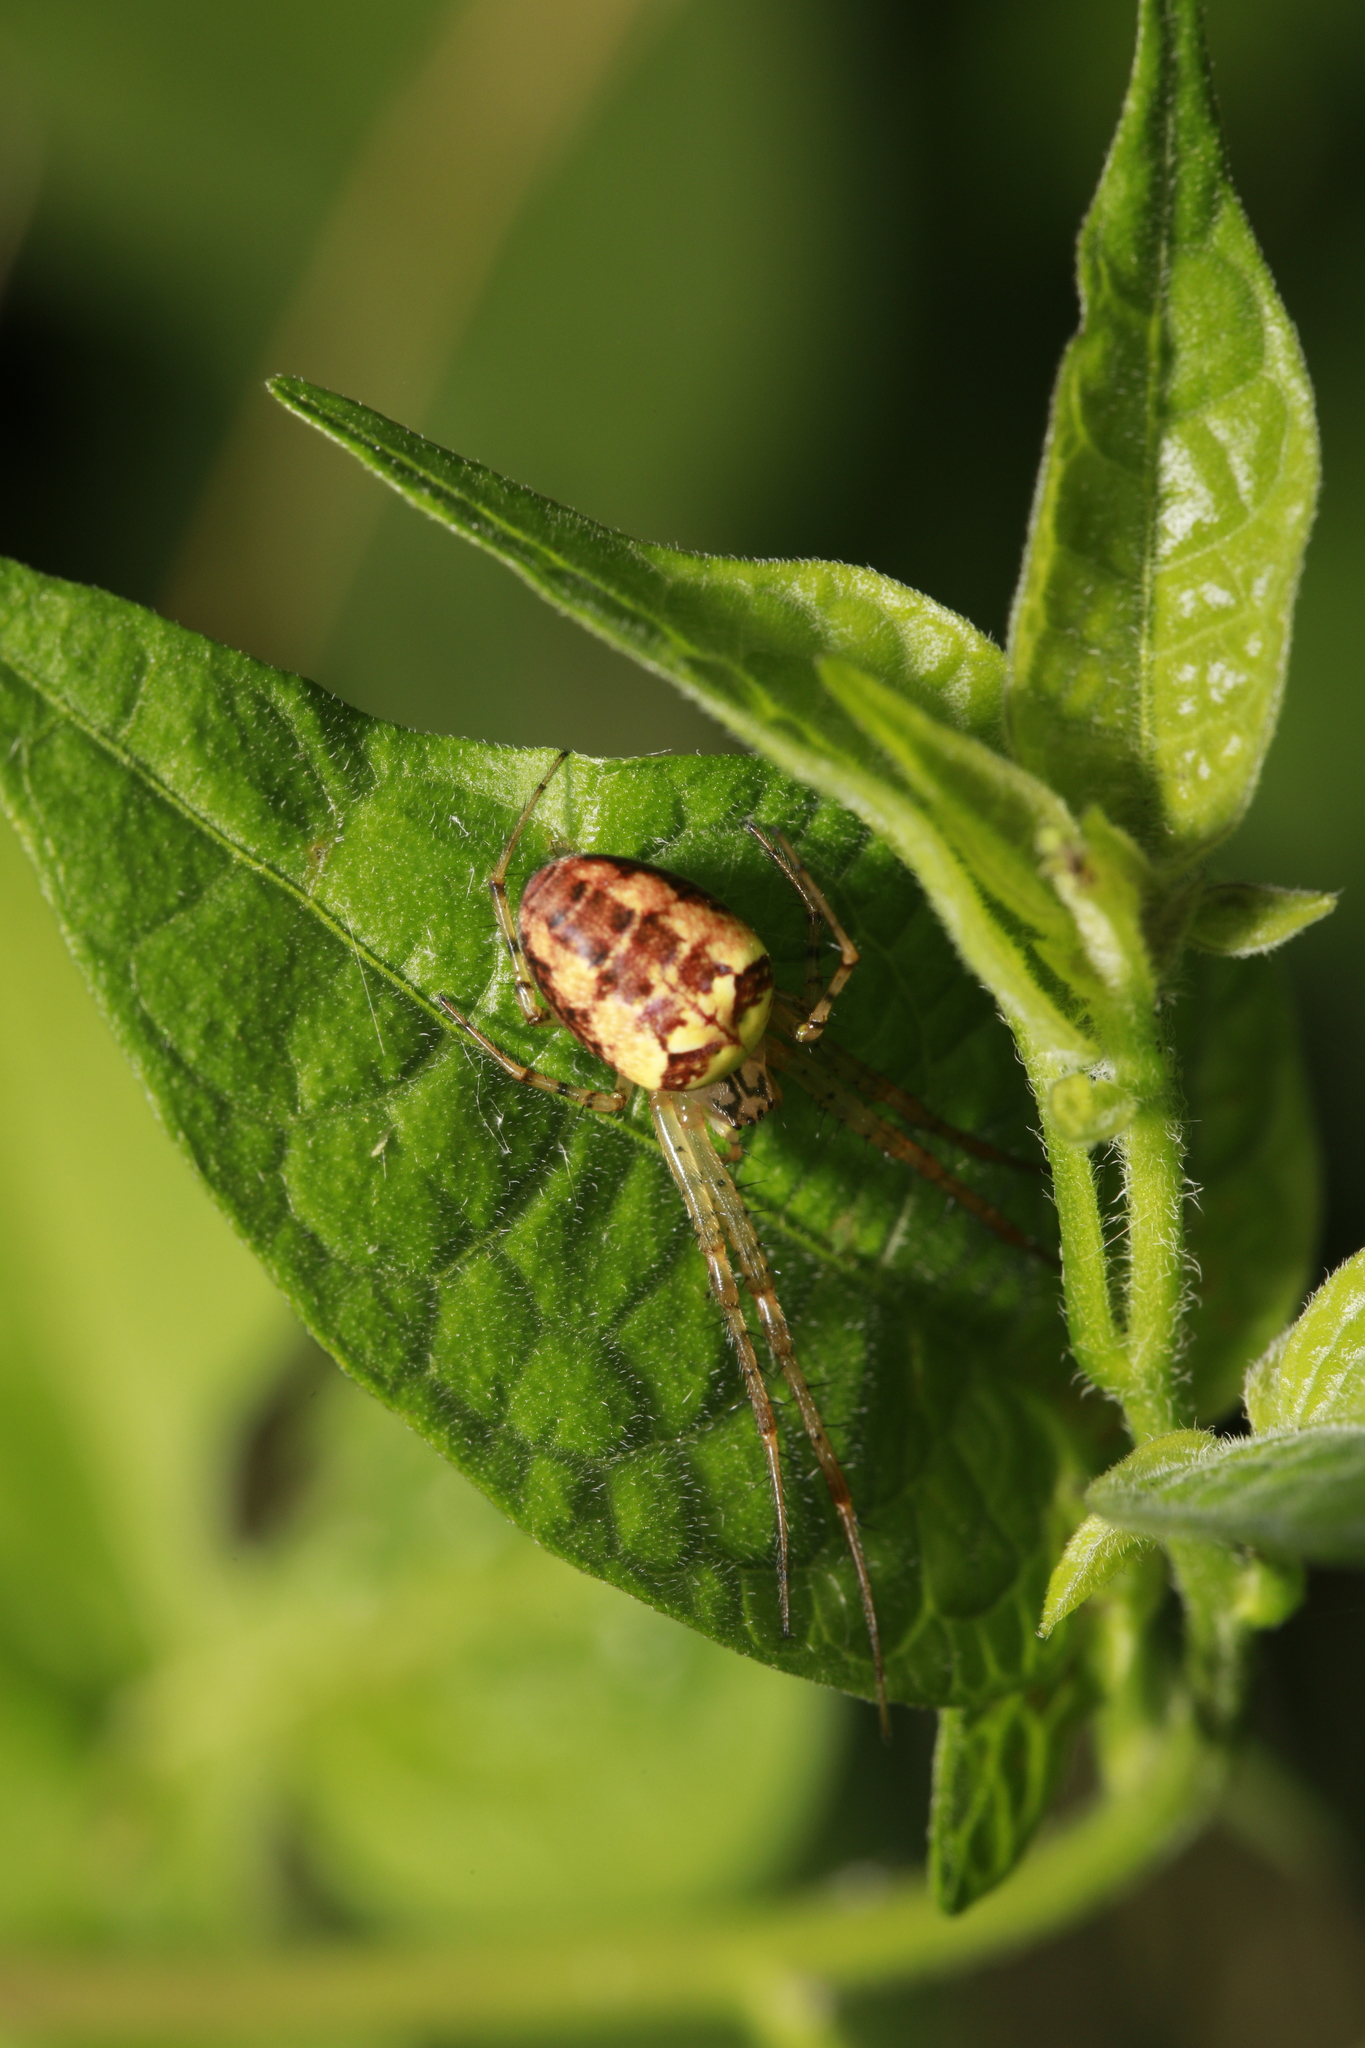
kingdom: Animalia
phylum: Arthropoda
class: Arachnida
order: Araneae
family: Tetragnathidae
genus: Metellina
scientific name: Metellina segmentata
